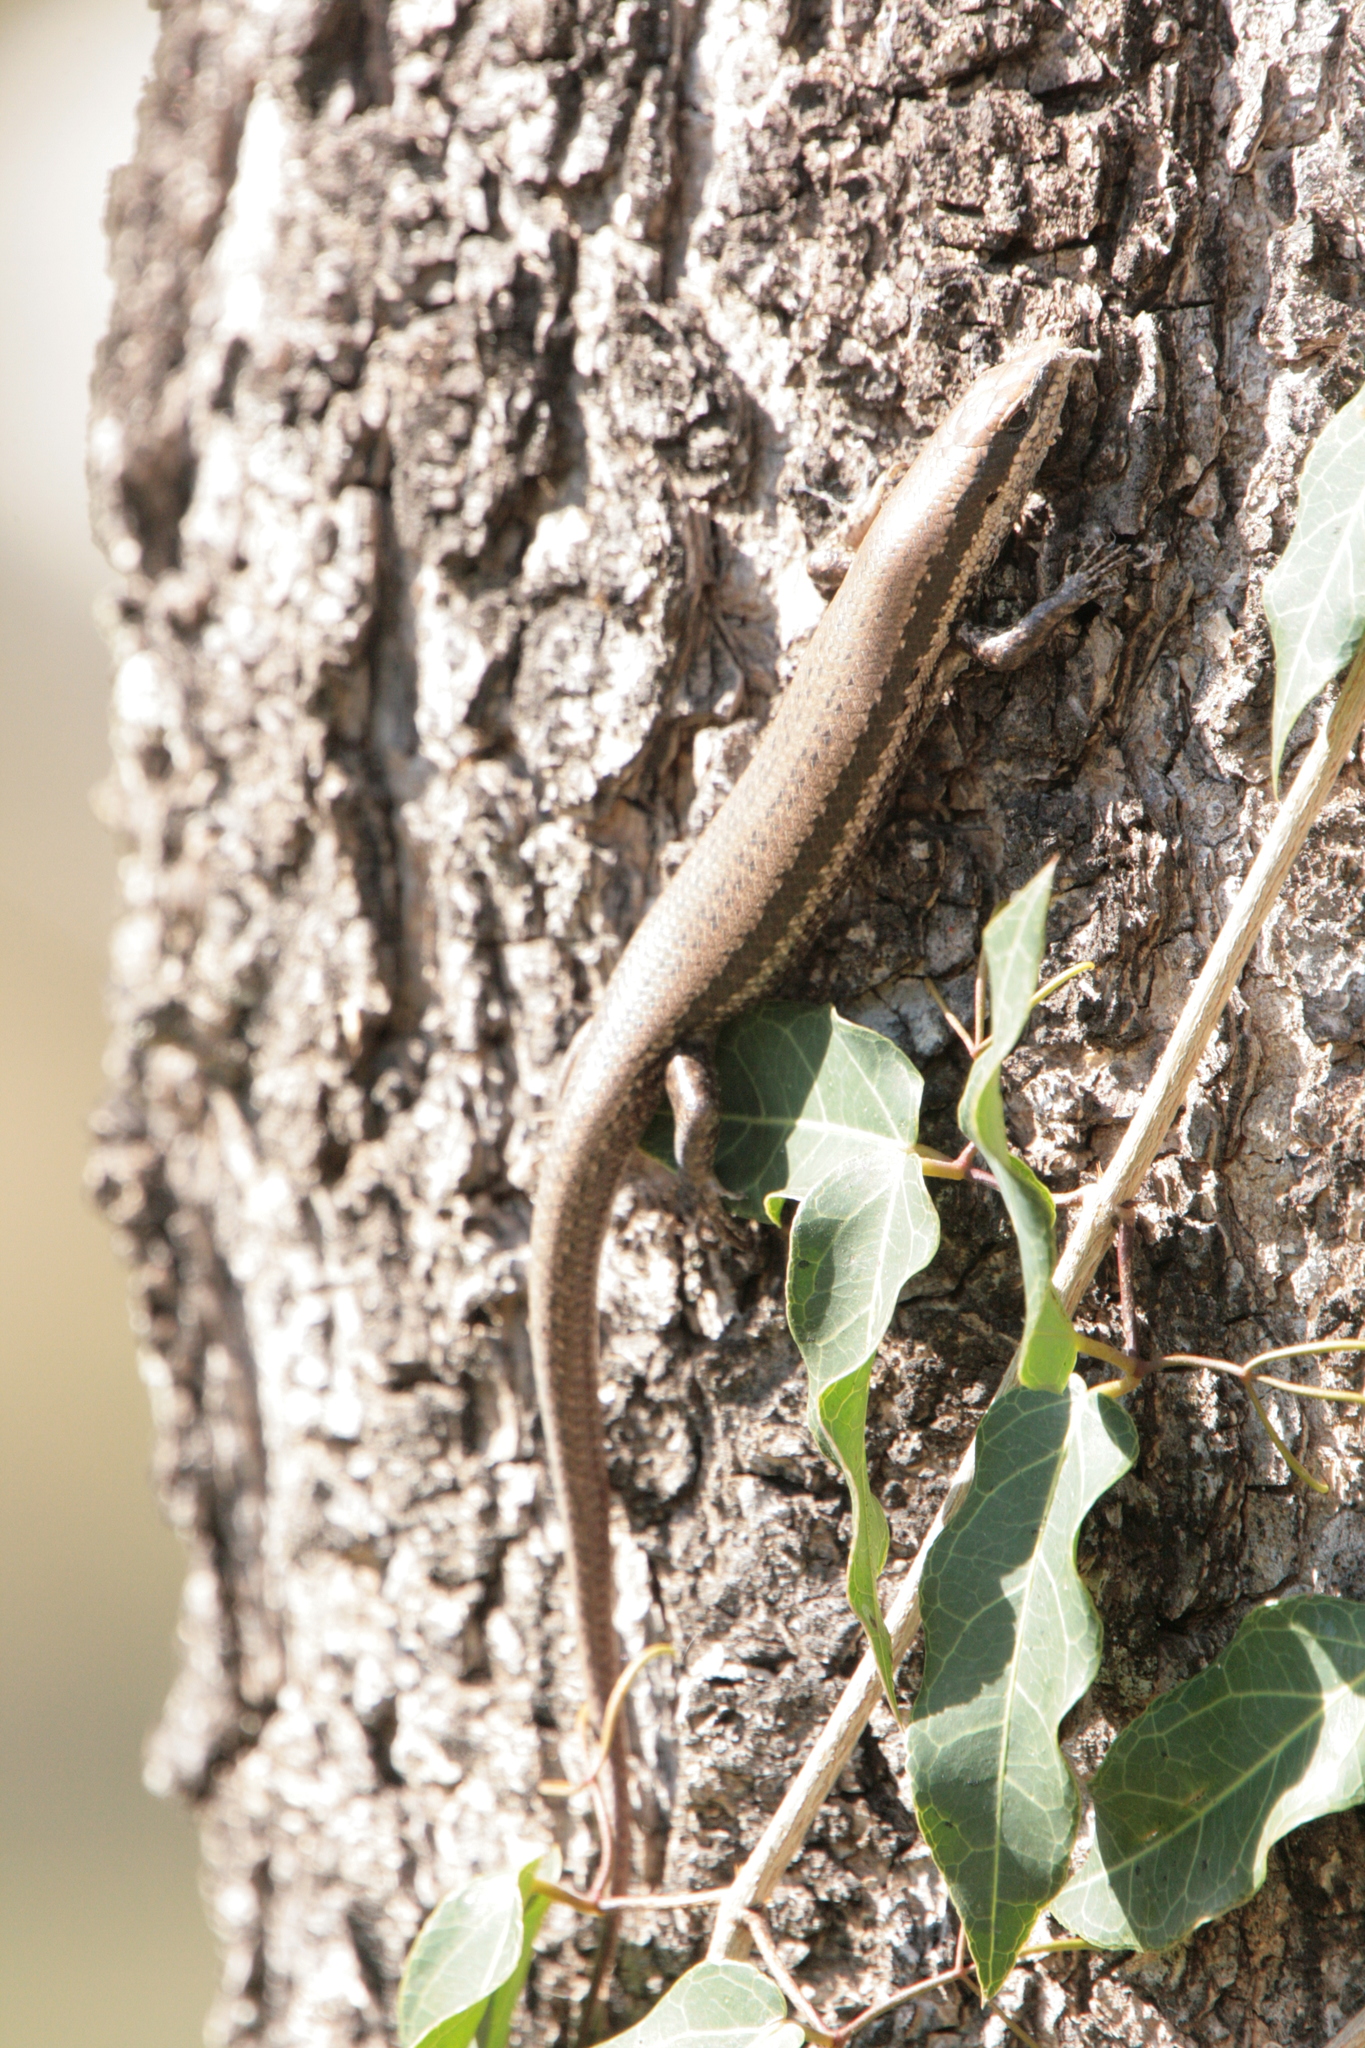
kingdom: Animalia
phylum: Chordata
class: Squamata
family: Scincidae
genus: Notomabuya
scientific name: Notomabuya frenata
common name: Cope's mabuya
